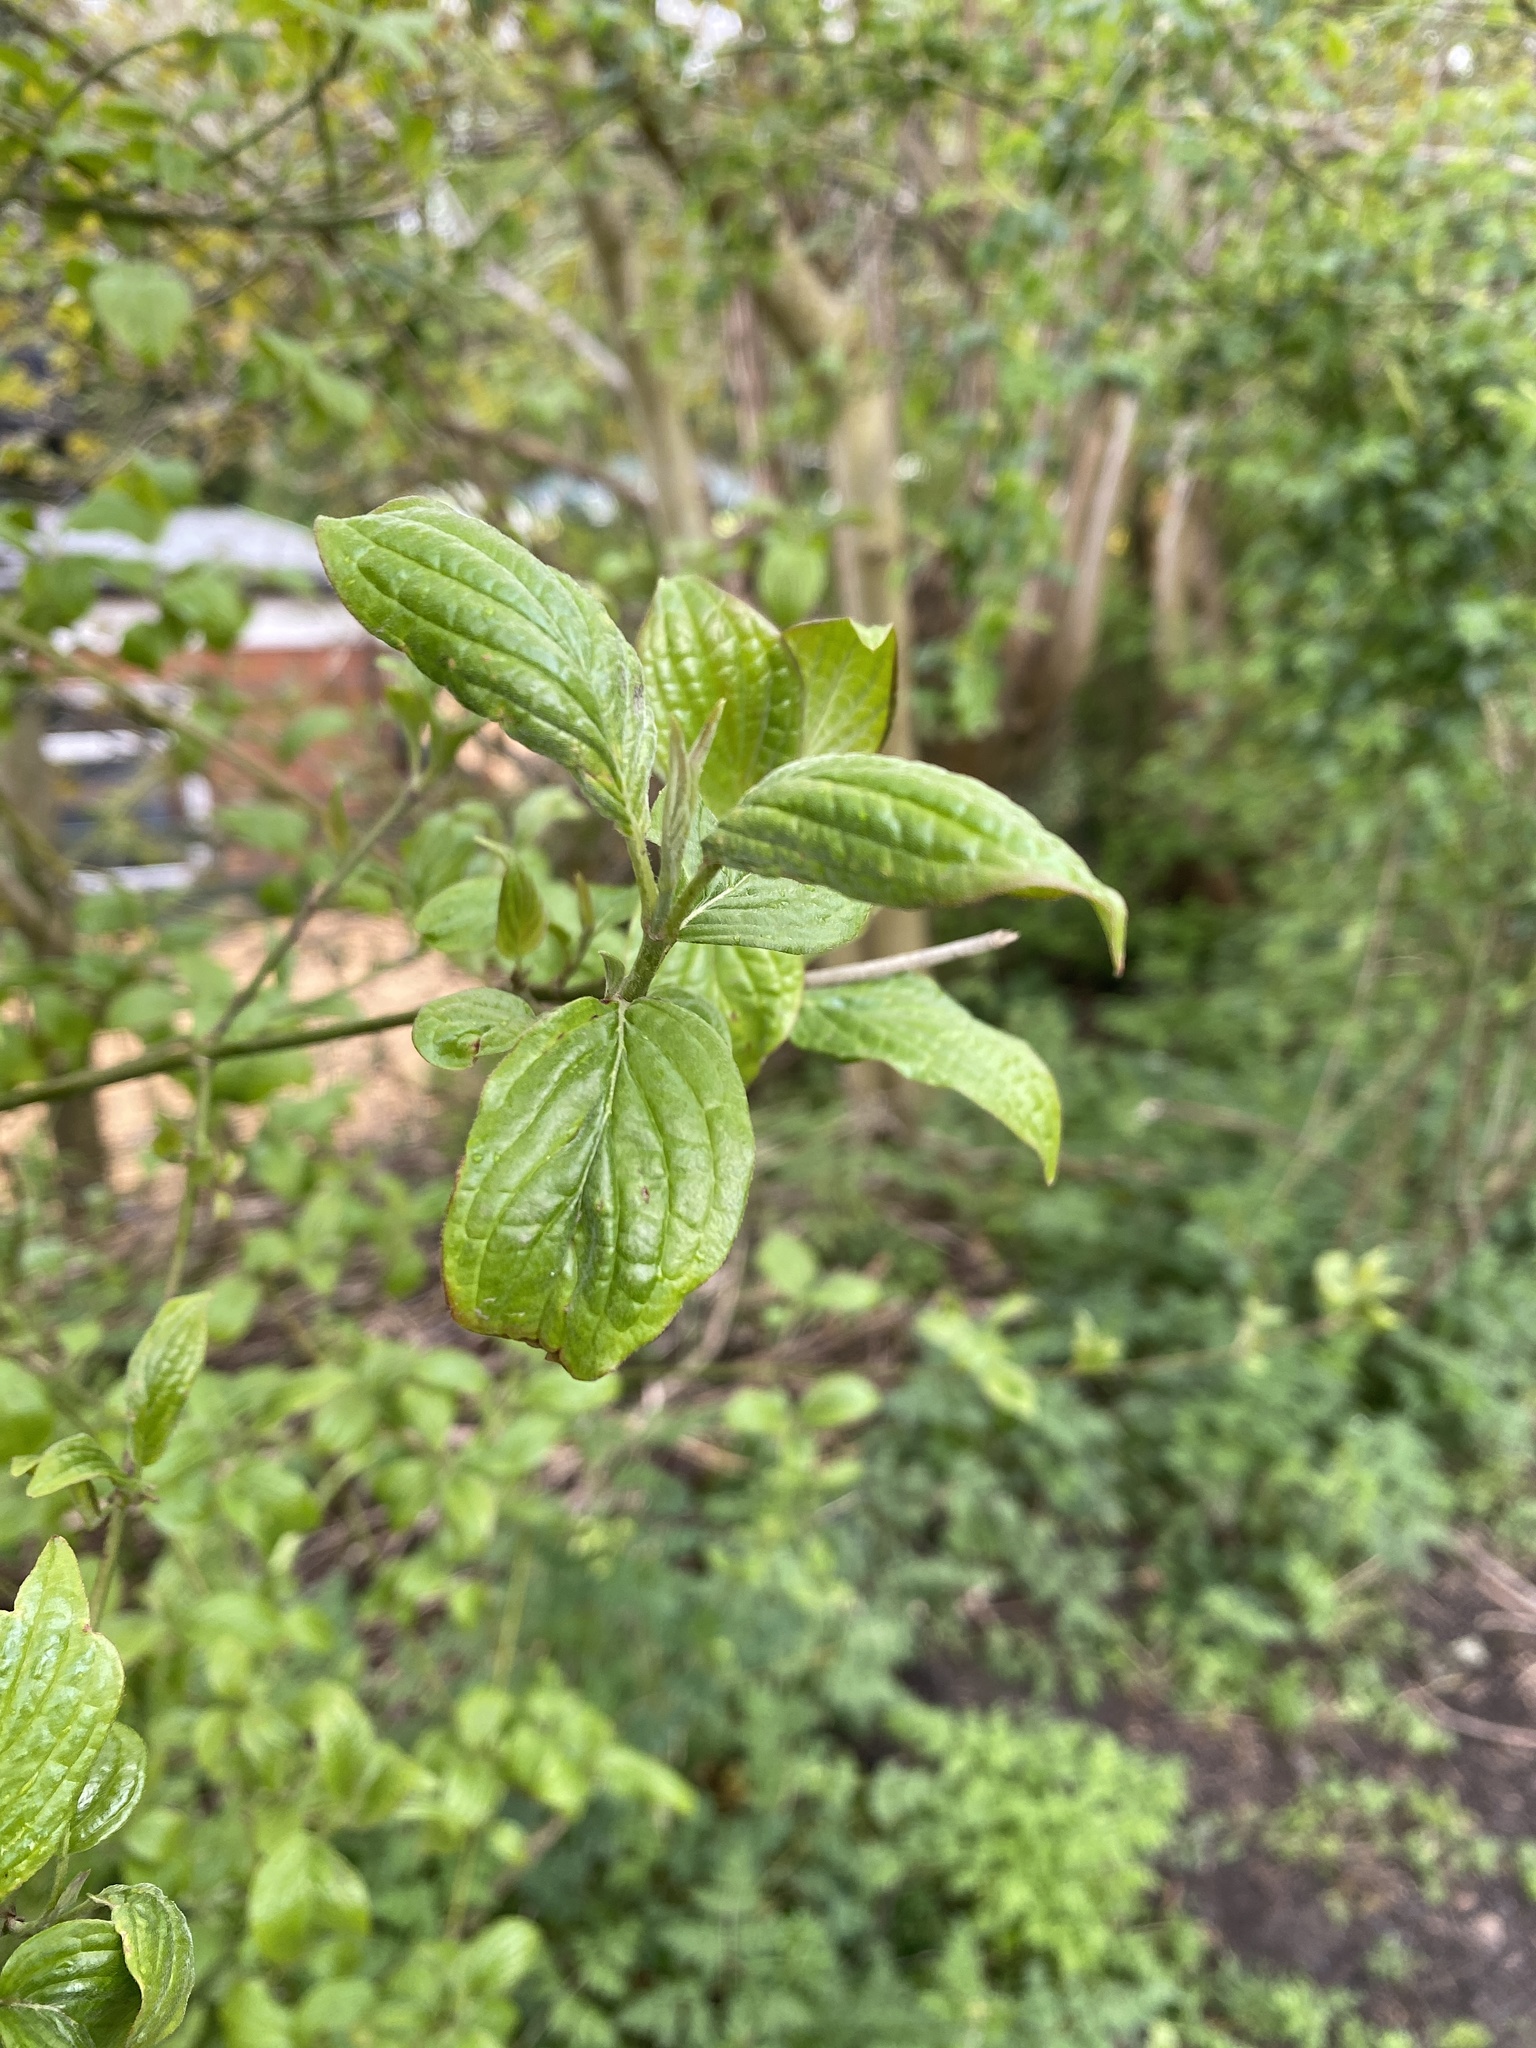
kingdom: Plantae
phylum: Tracheophyta
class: Magnoliopsida
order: Cornales
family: Cornaceae
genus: Cornus
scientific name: Cornus sanguinea
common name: Dogwood
